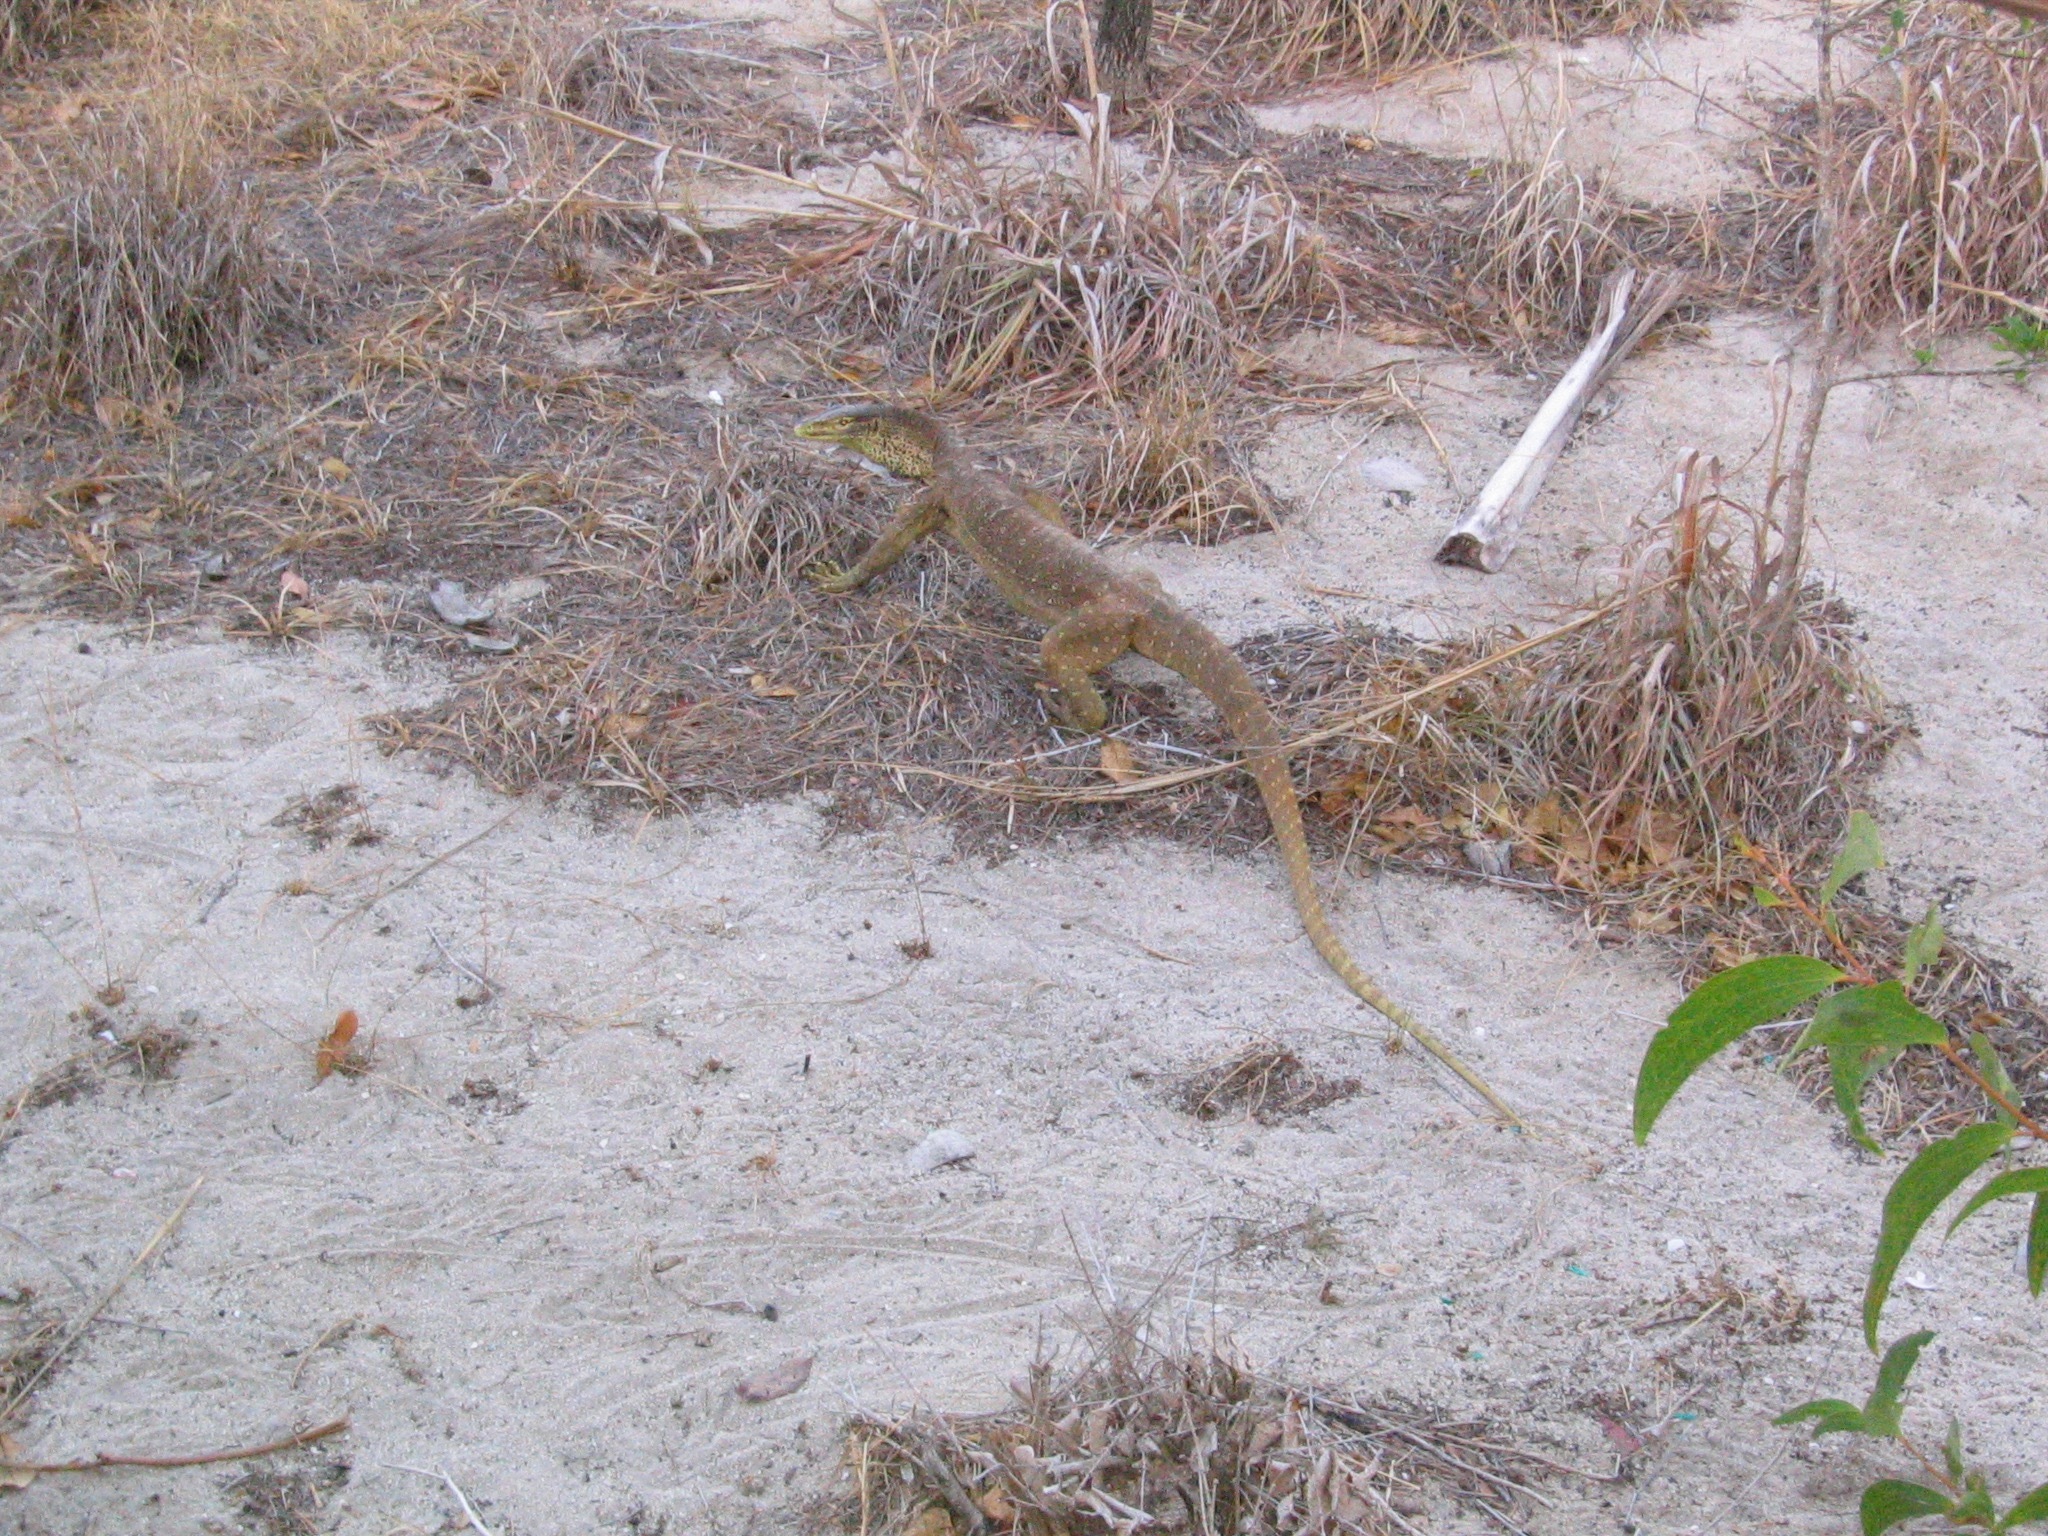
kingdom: Animalia
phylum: Chordata
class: Squamata
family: Varanidae
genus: Varanus
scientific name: Varanus panoptes
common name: Yellow-spotted monitor
